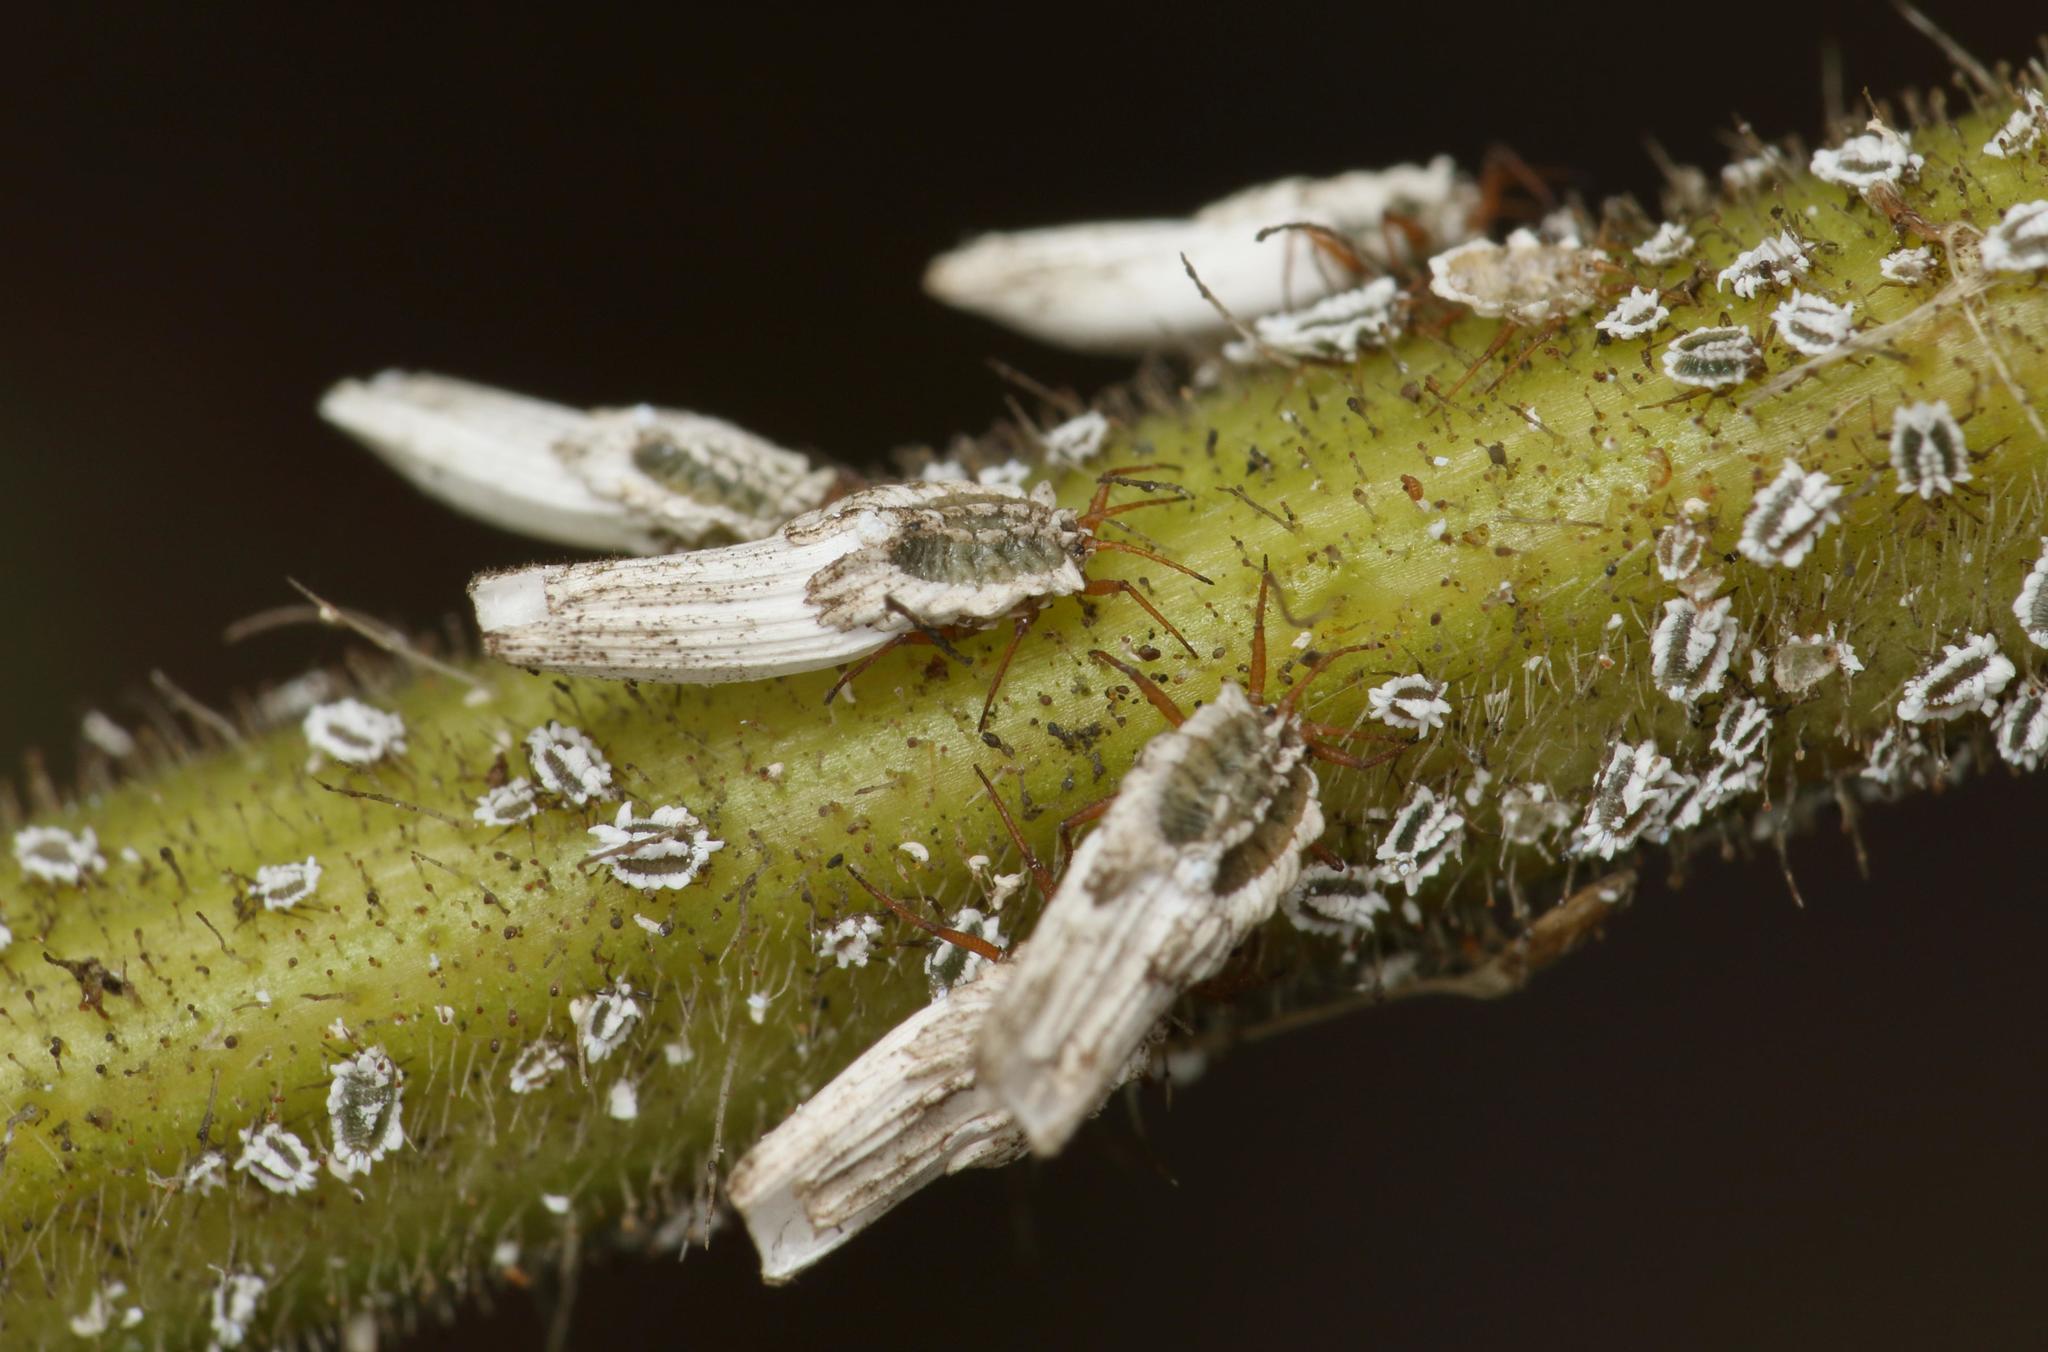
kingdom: Animalia
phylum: Arthropoda
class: Insecta
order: Hemiptera
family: Ortheziidae
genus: Insignorthezia
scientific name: Insignorthezia insignis
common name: Greenhouse orthezia
